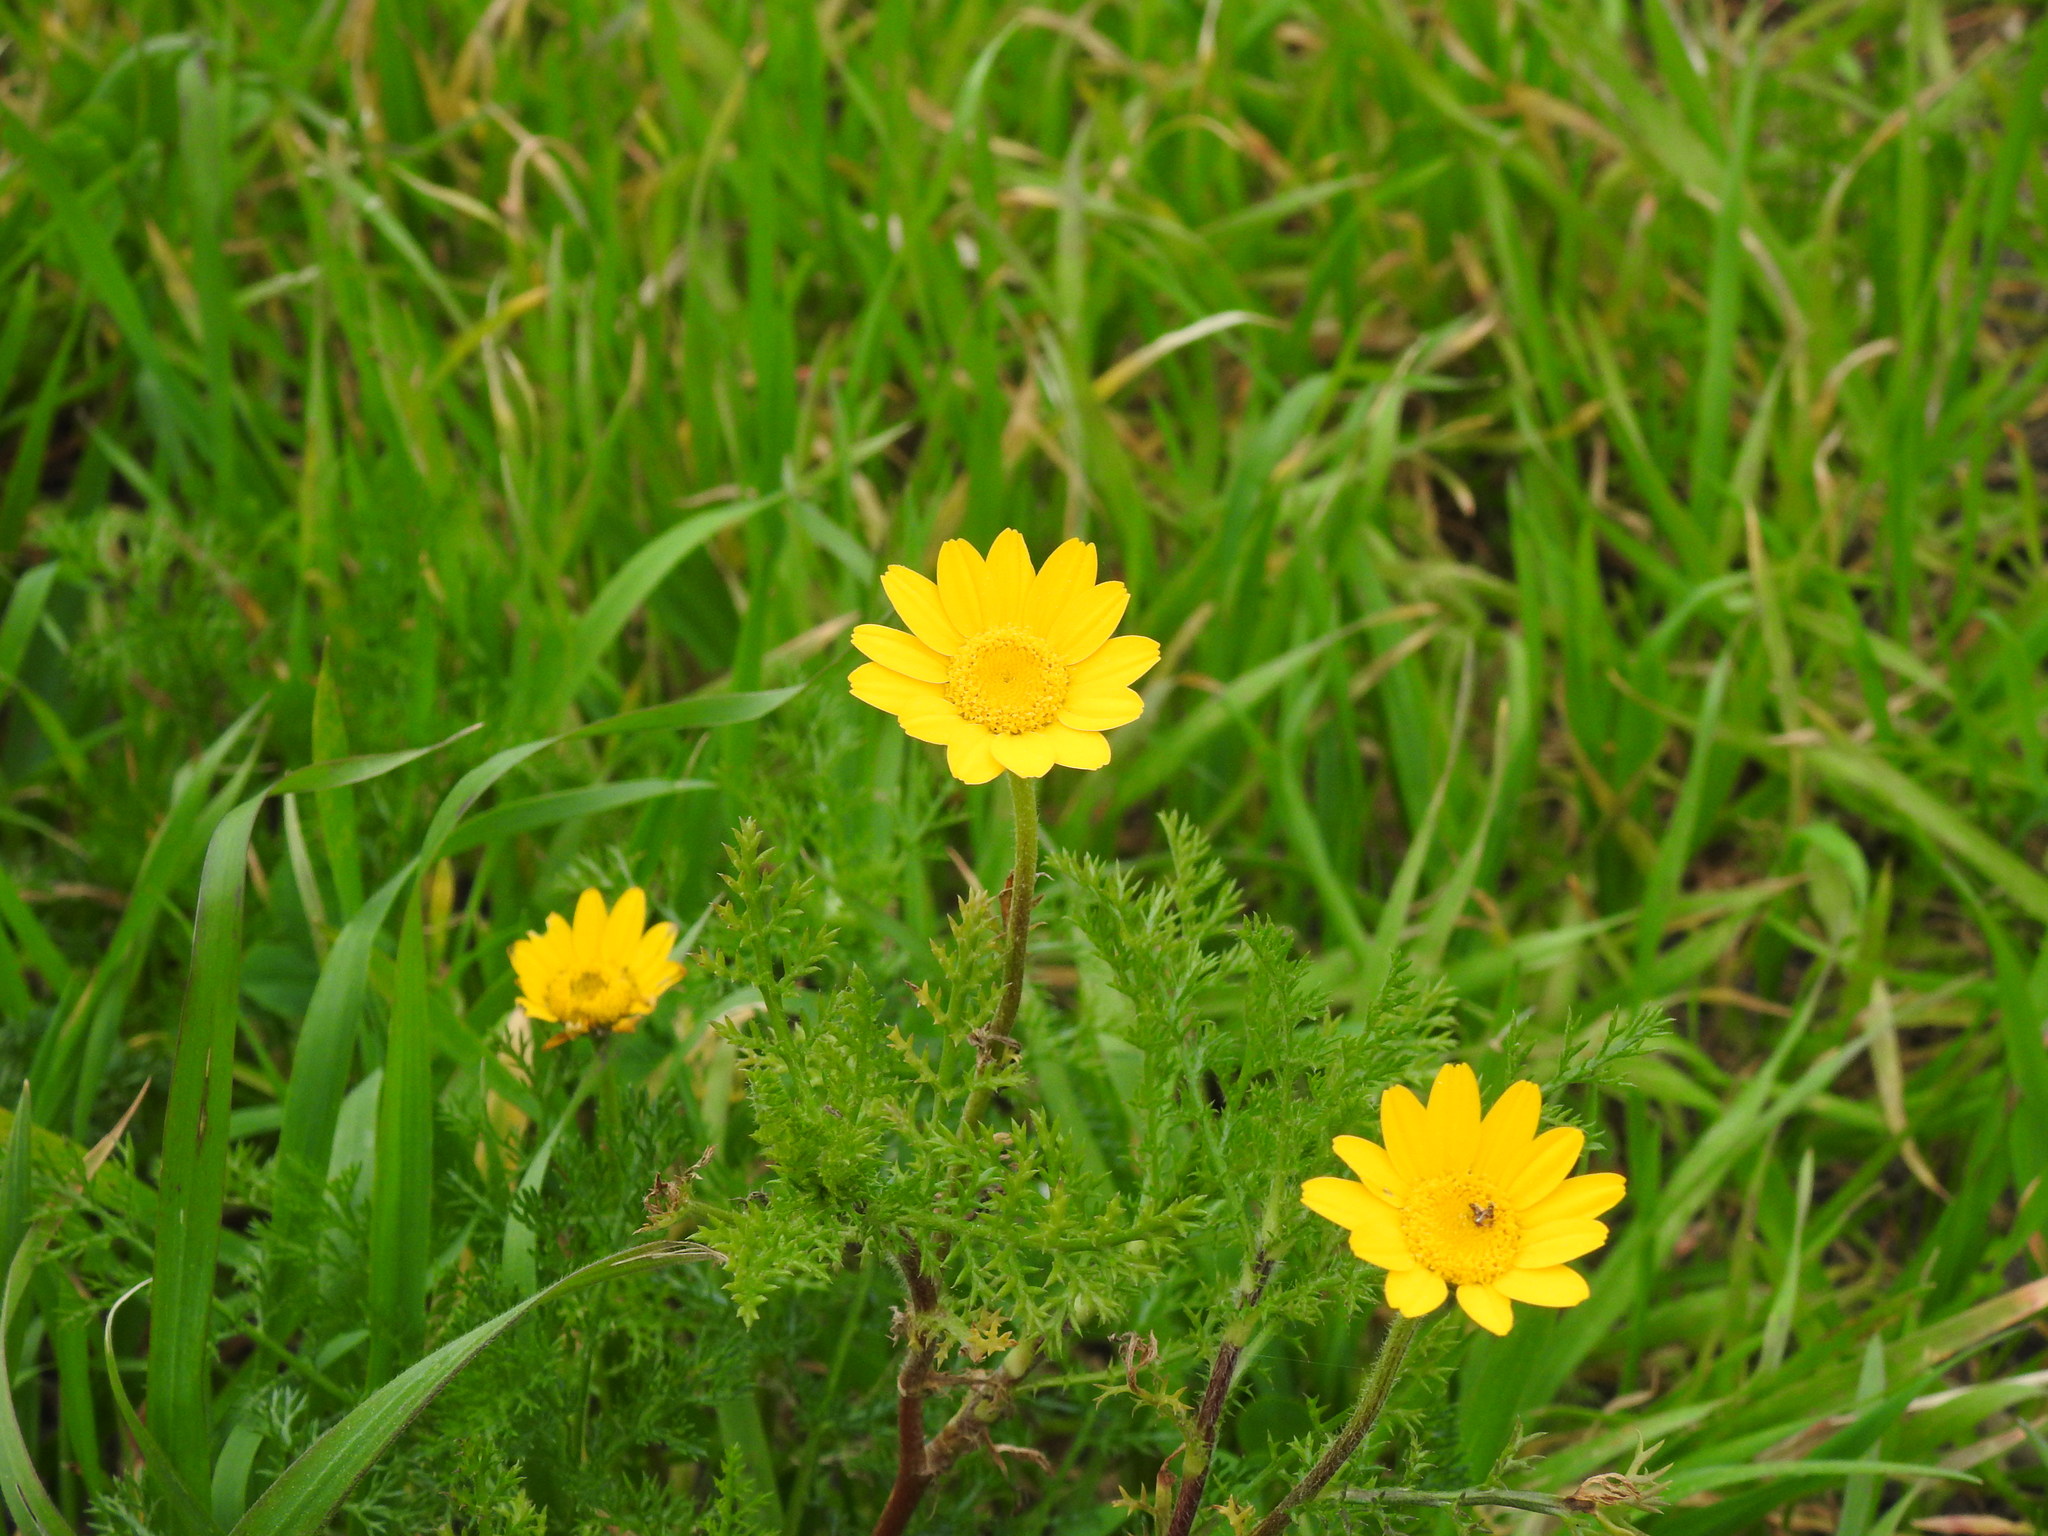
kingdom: Plantae
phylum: Tracheophyta
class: Magnoliopsida
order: Asterales
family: Asteraceae
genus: Anacyclus
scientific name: Anacyclus radiatus
